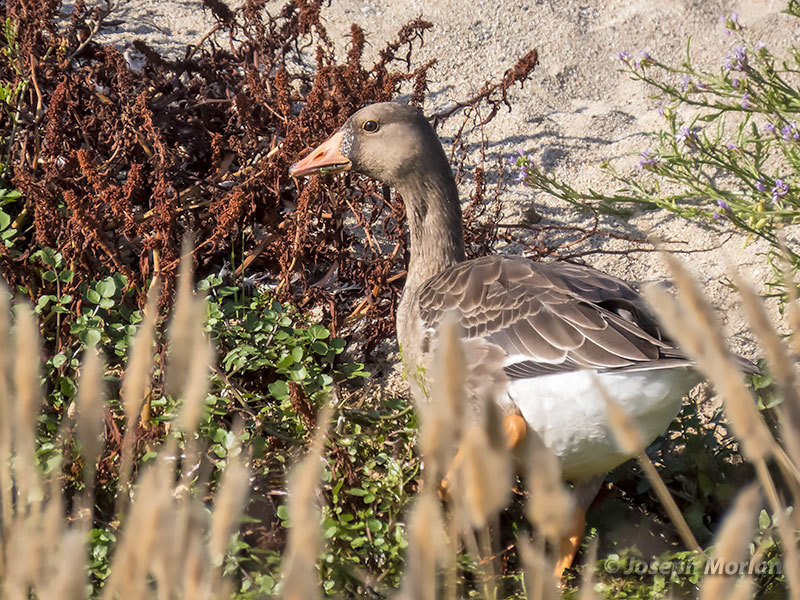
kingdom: Animalia
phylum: Chordata
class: Aves
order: Anseriformes
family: Anatidae
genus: Anser
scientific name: Anser albifrons
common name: Greater white-fronted goose
